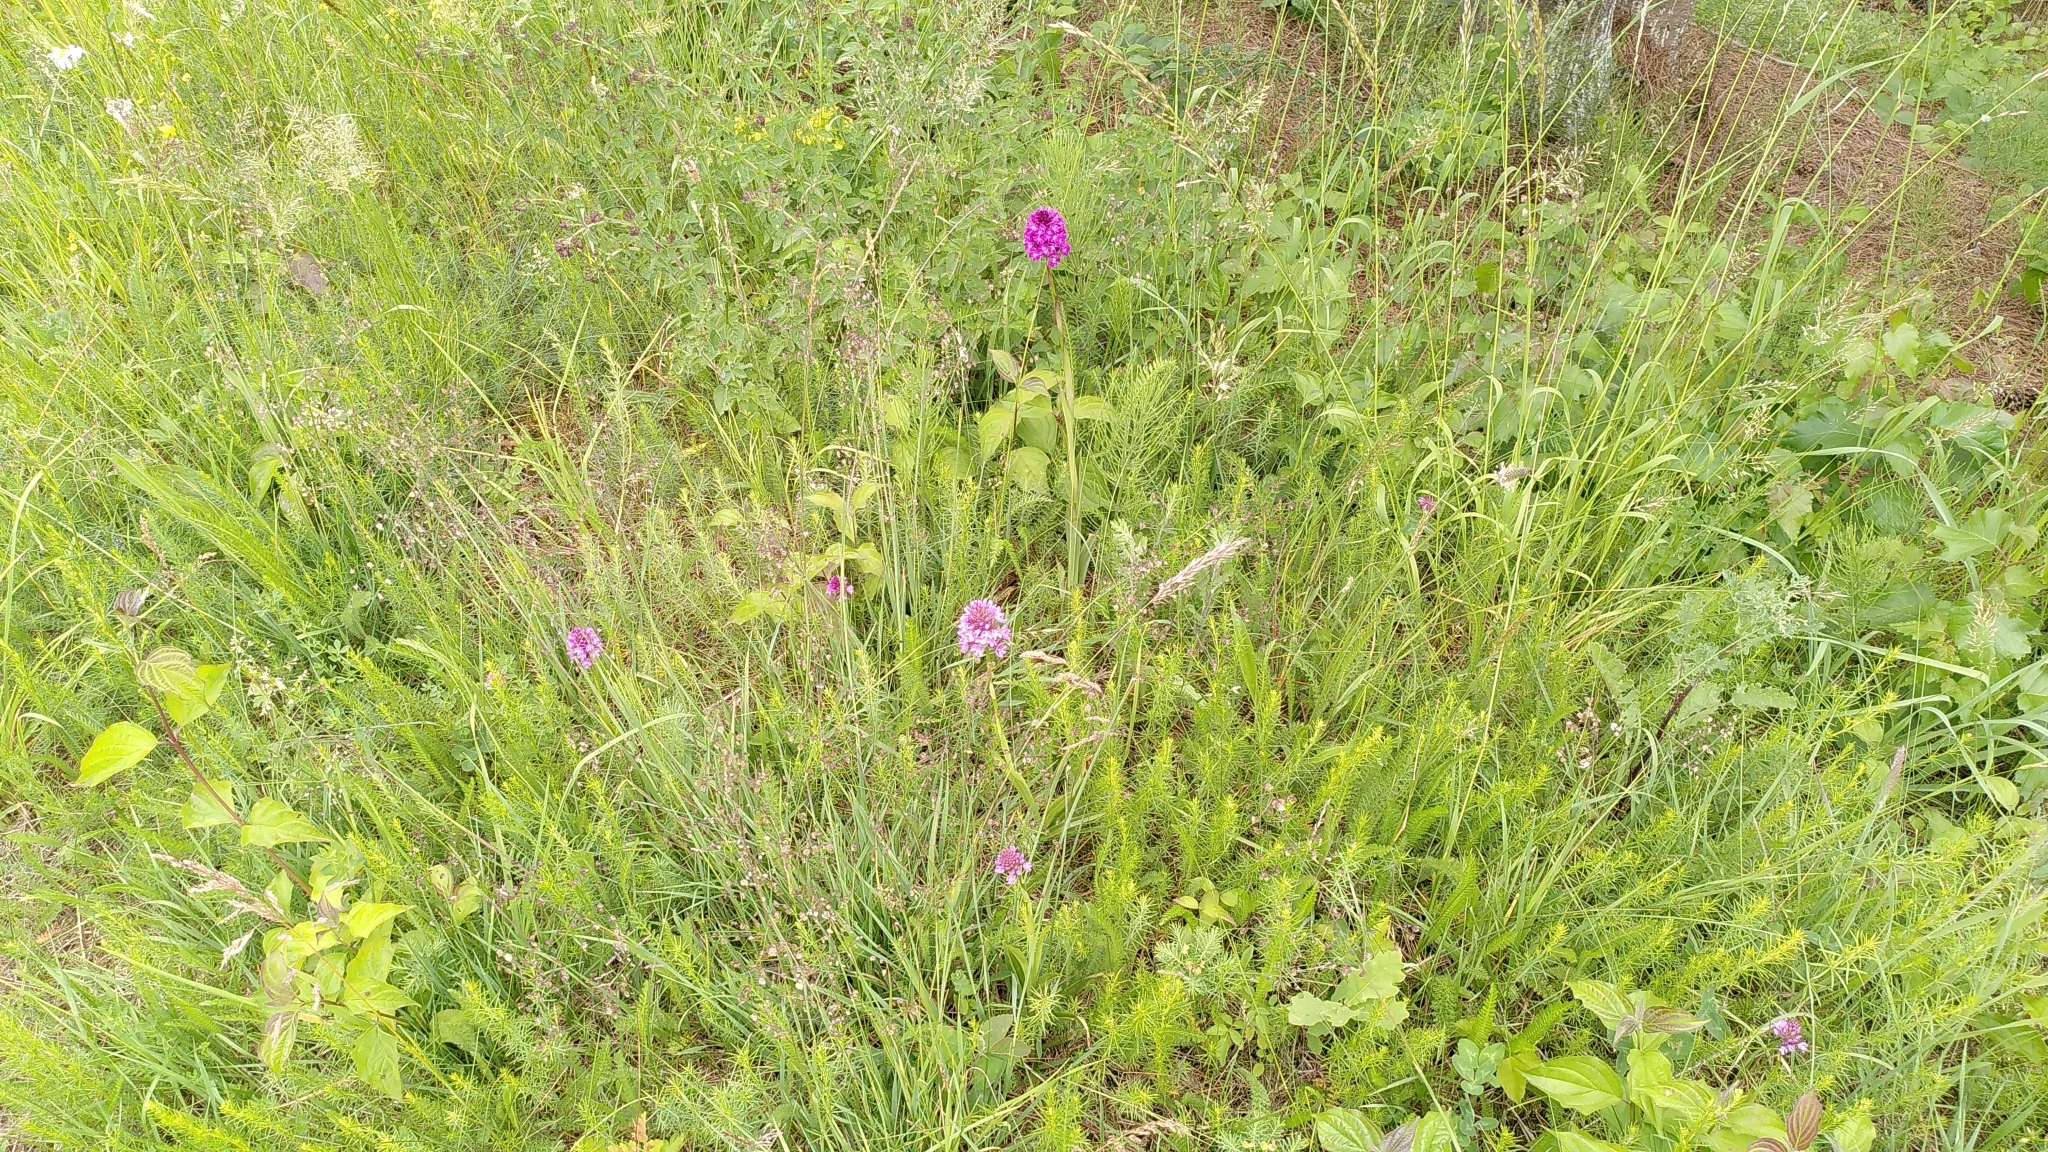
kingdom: Plantae
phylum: Tracheophyta
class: Liliopsida
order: Asparagales
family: Orchidaceae
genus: Anacamptis
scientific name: Anacamptis pyramidalis
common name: Pyramidal orchid
